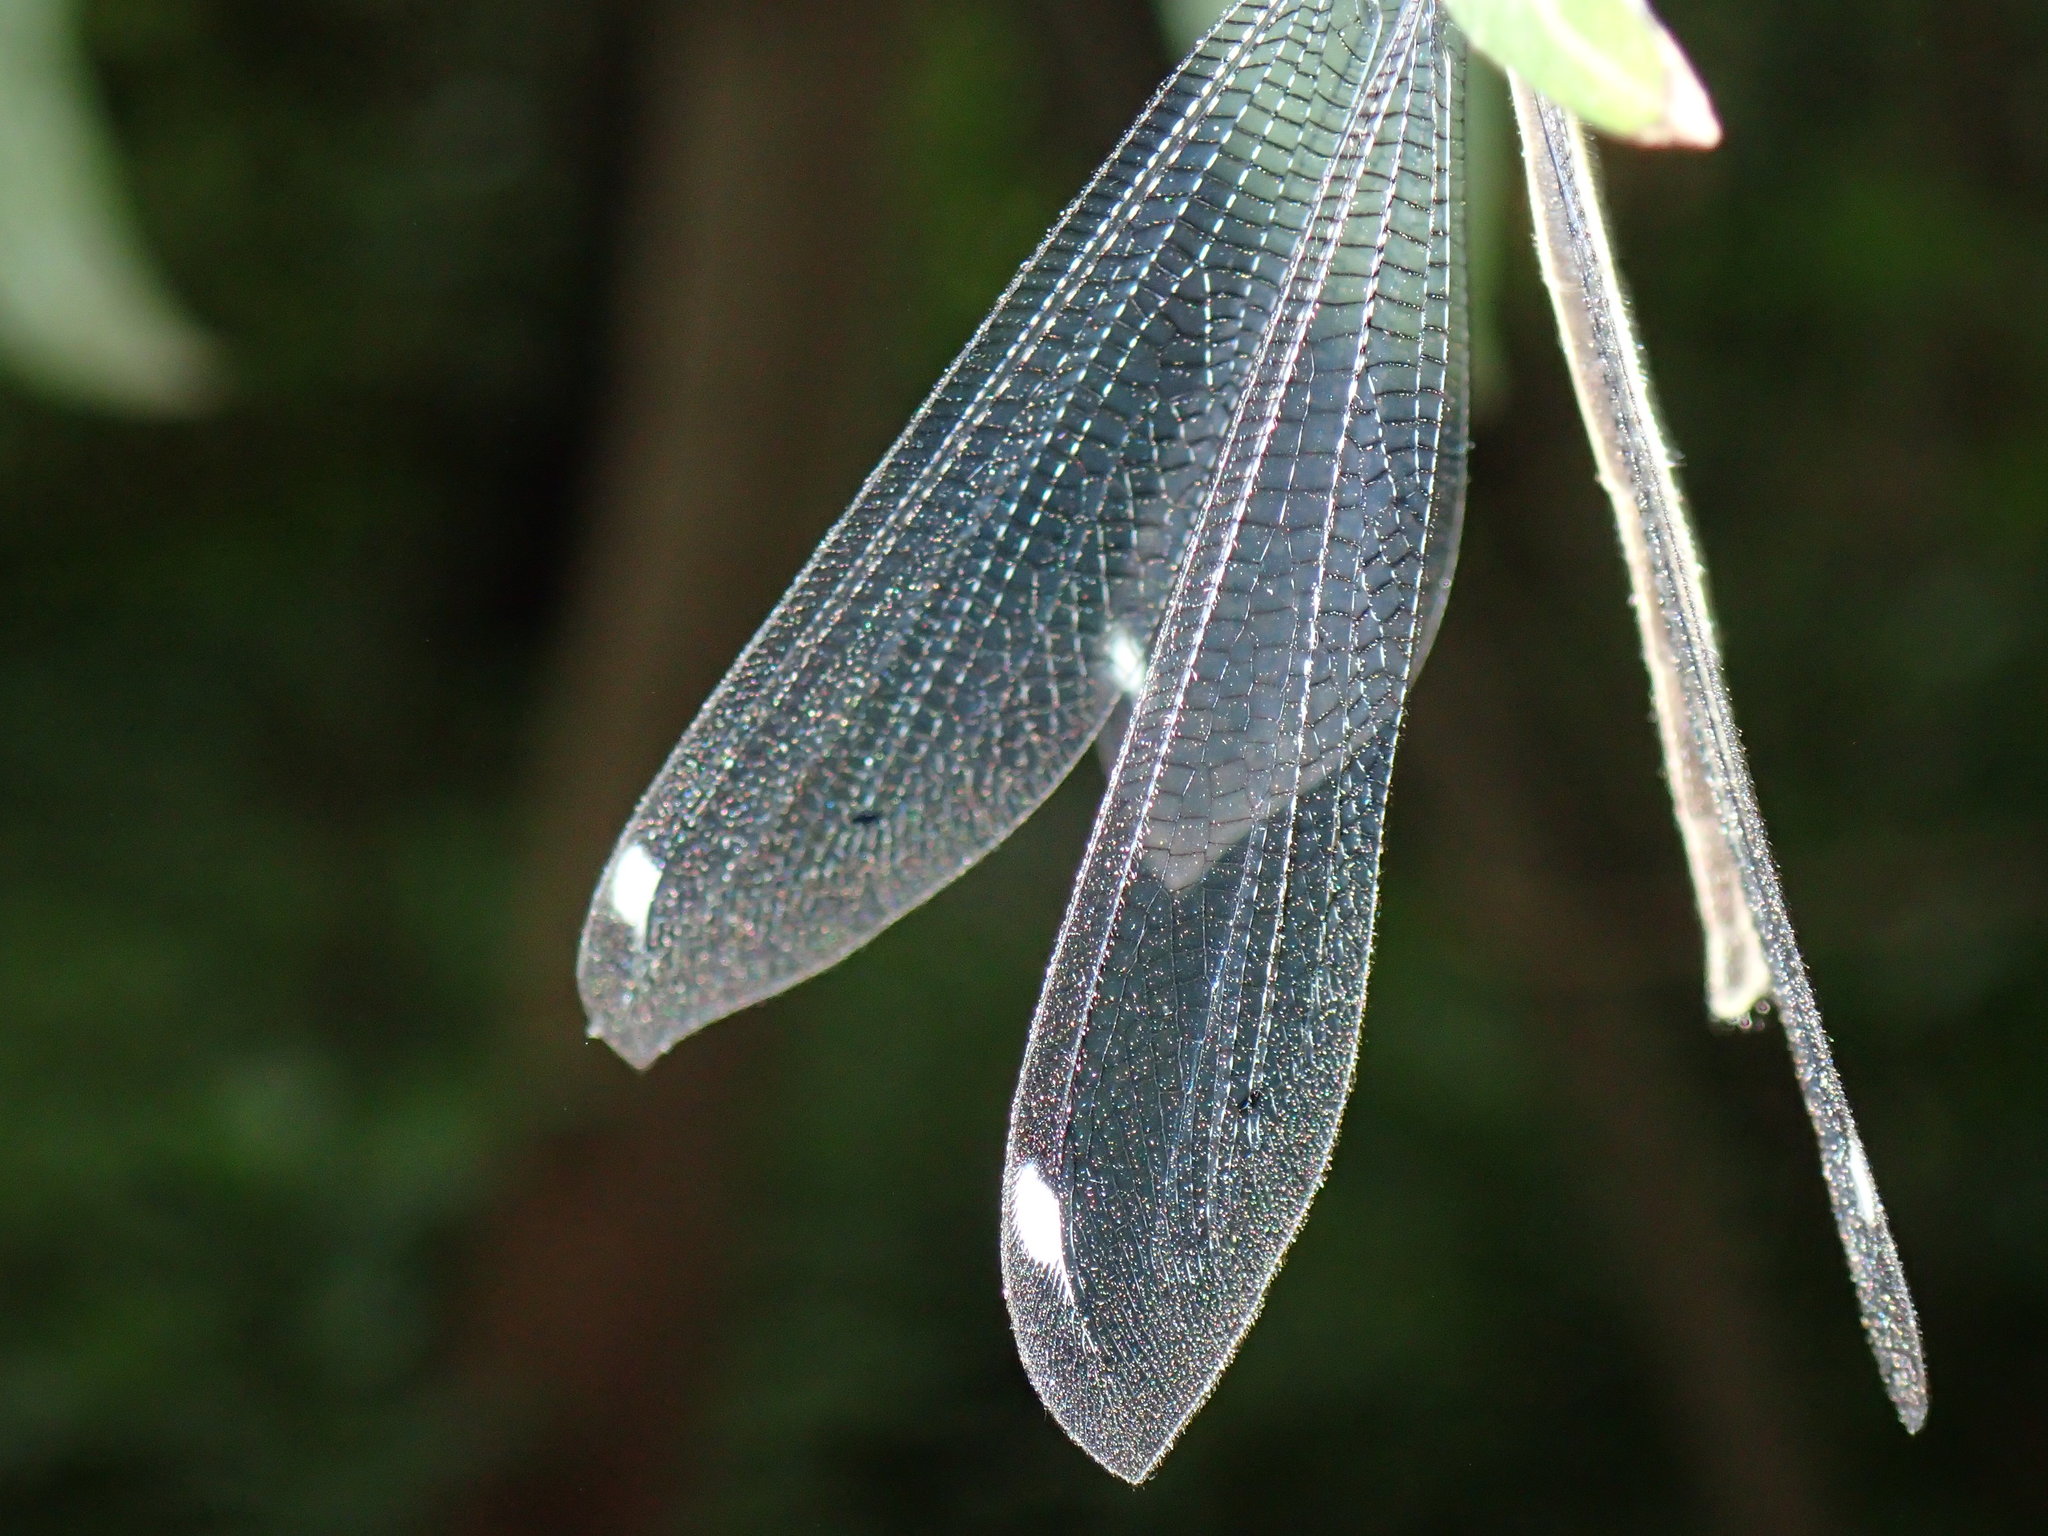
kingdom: Animalia
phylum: Arthropoda
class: Insecta
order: Neuroptera
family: Myrmeleontidae
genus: Banyutus
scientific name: Banyutus lethalis
